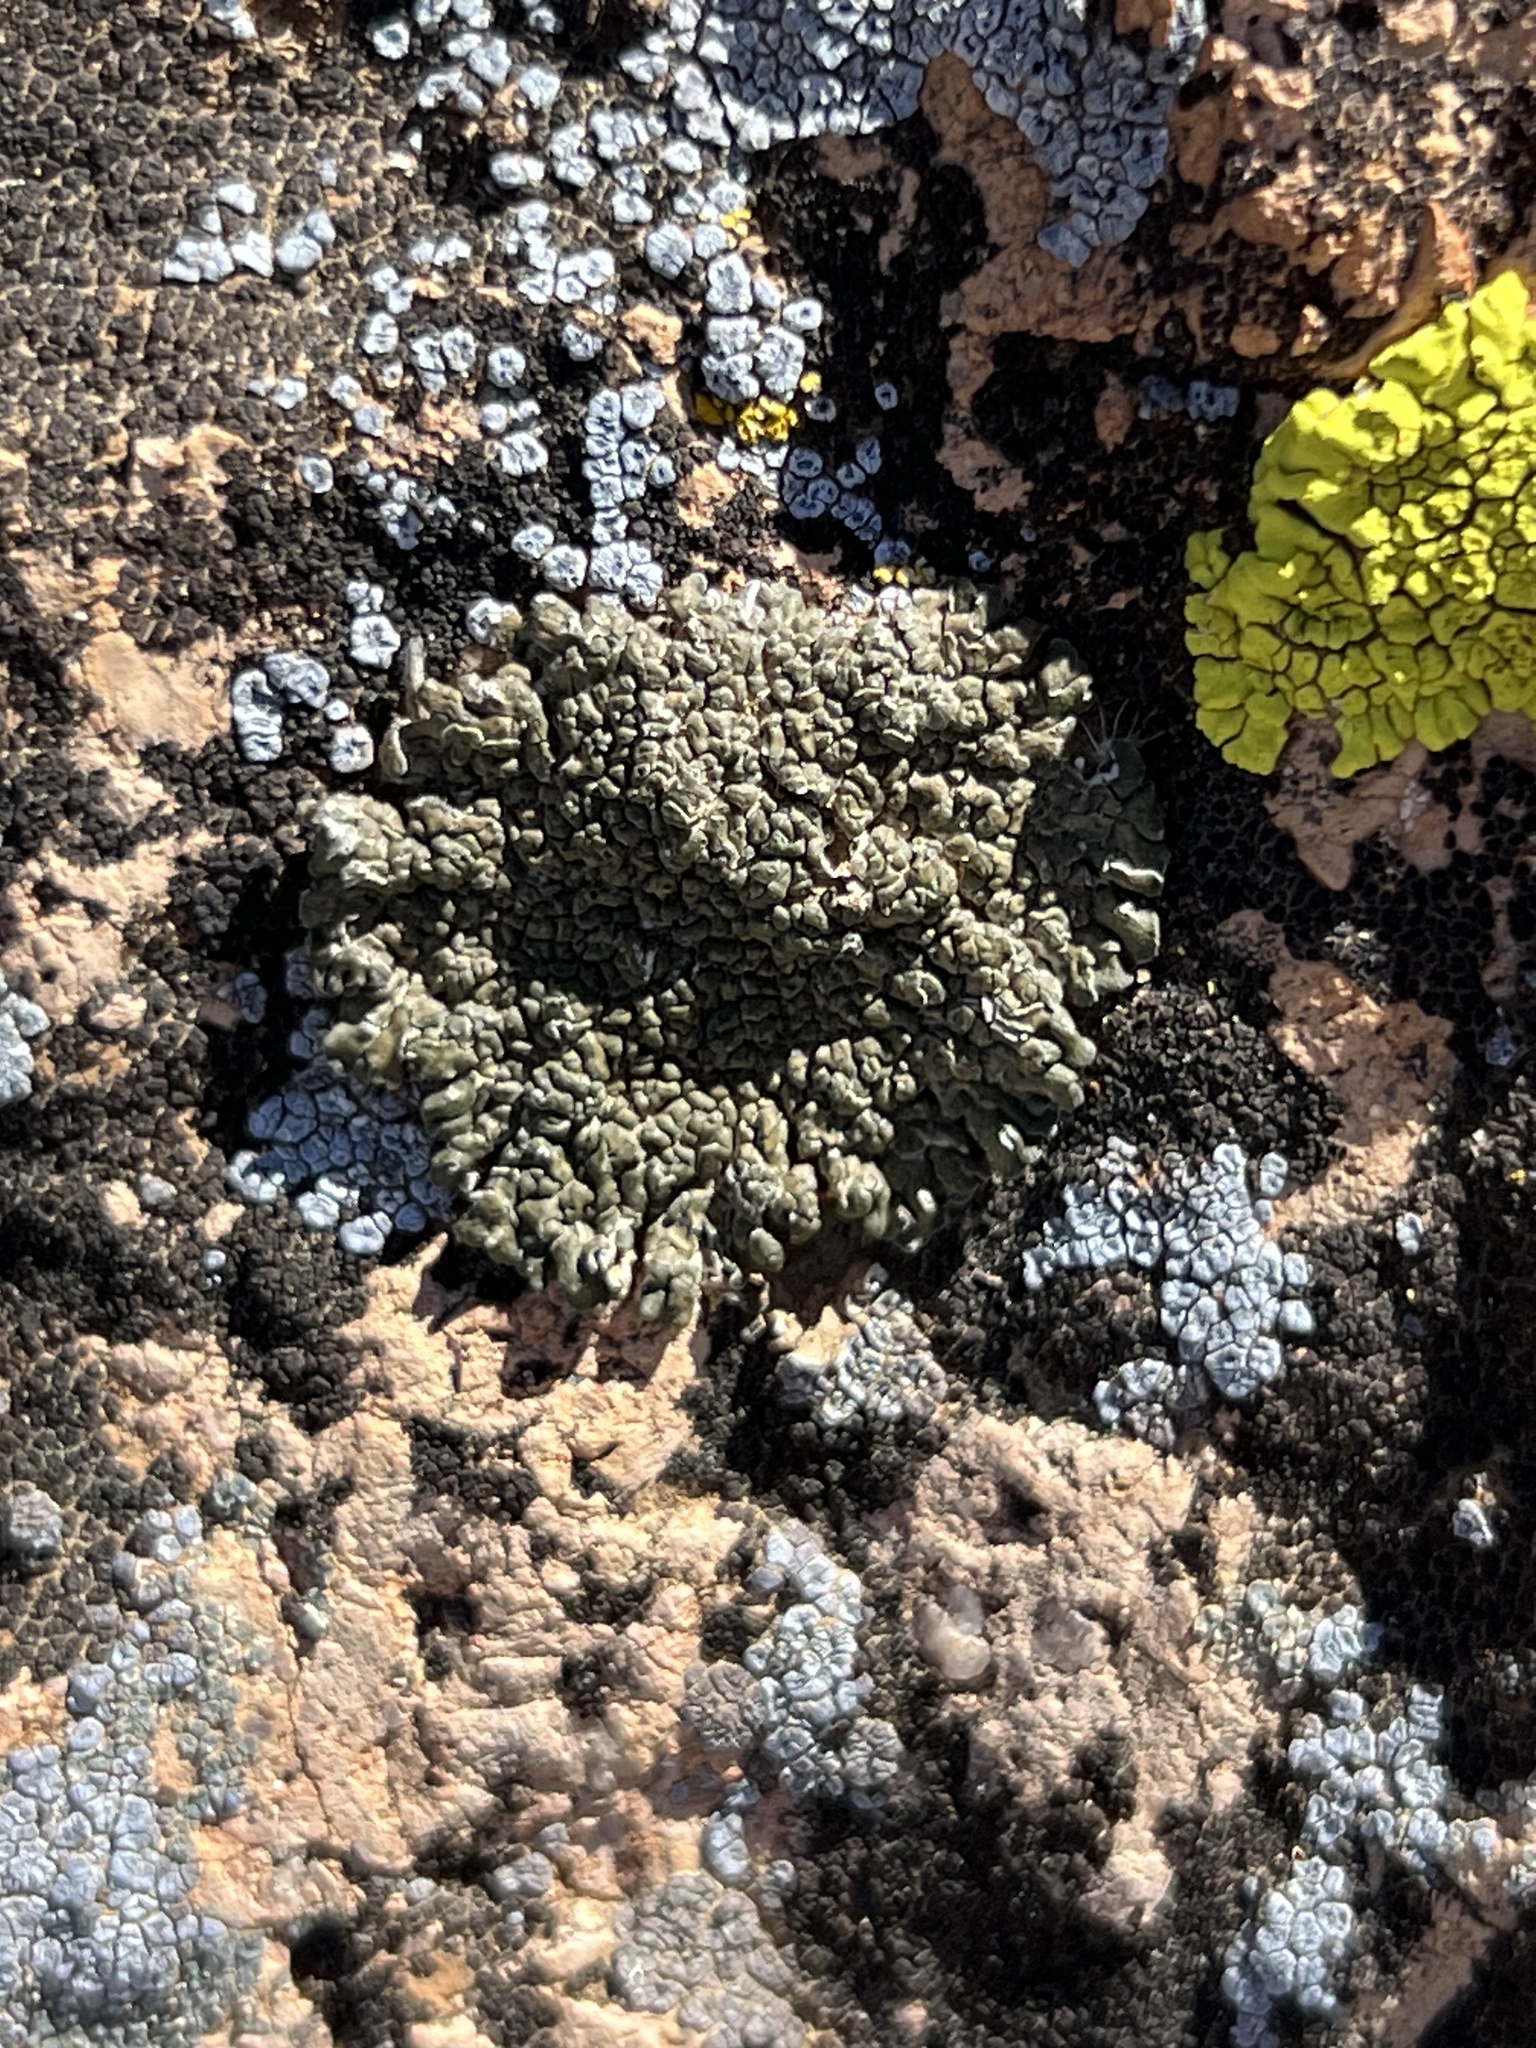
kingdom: Fungi
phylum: Ascomycota
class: Lecanoromycetes
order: Lecanorales
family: Lecanoraceae
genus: Rhizoplaca
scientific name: Rhizoplaca melanophthalma
